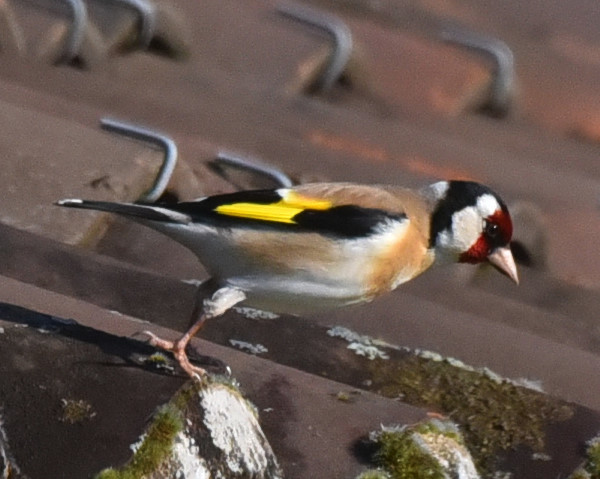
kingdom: Animalia
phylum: Chordata
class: Aves
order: Passeriformes
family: Fringillidae
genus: Carduelis
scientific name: Carduelis carduelis
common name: European goldfinch
